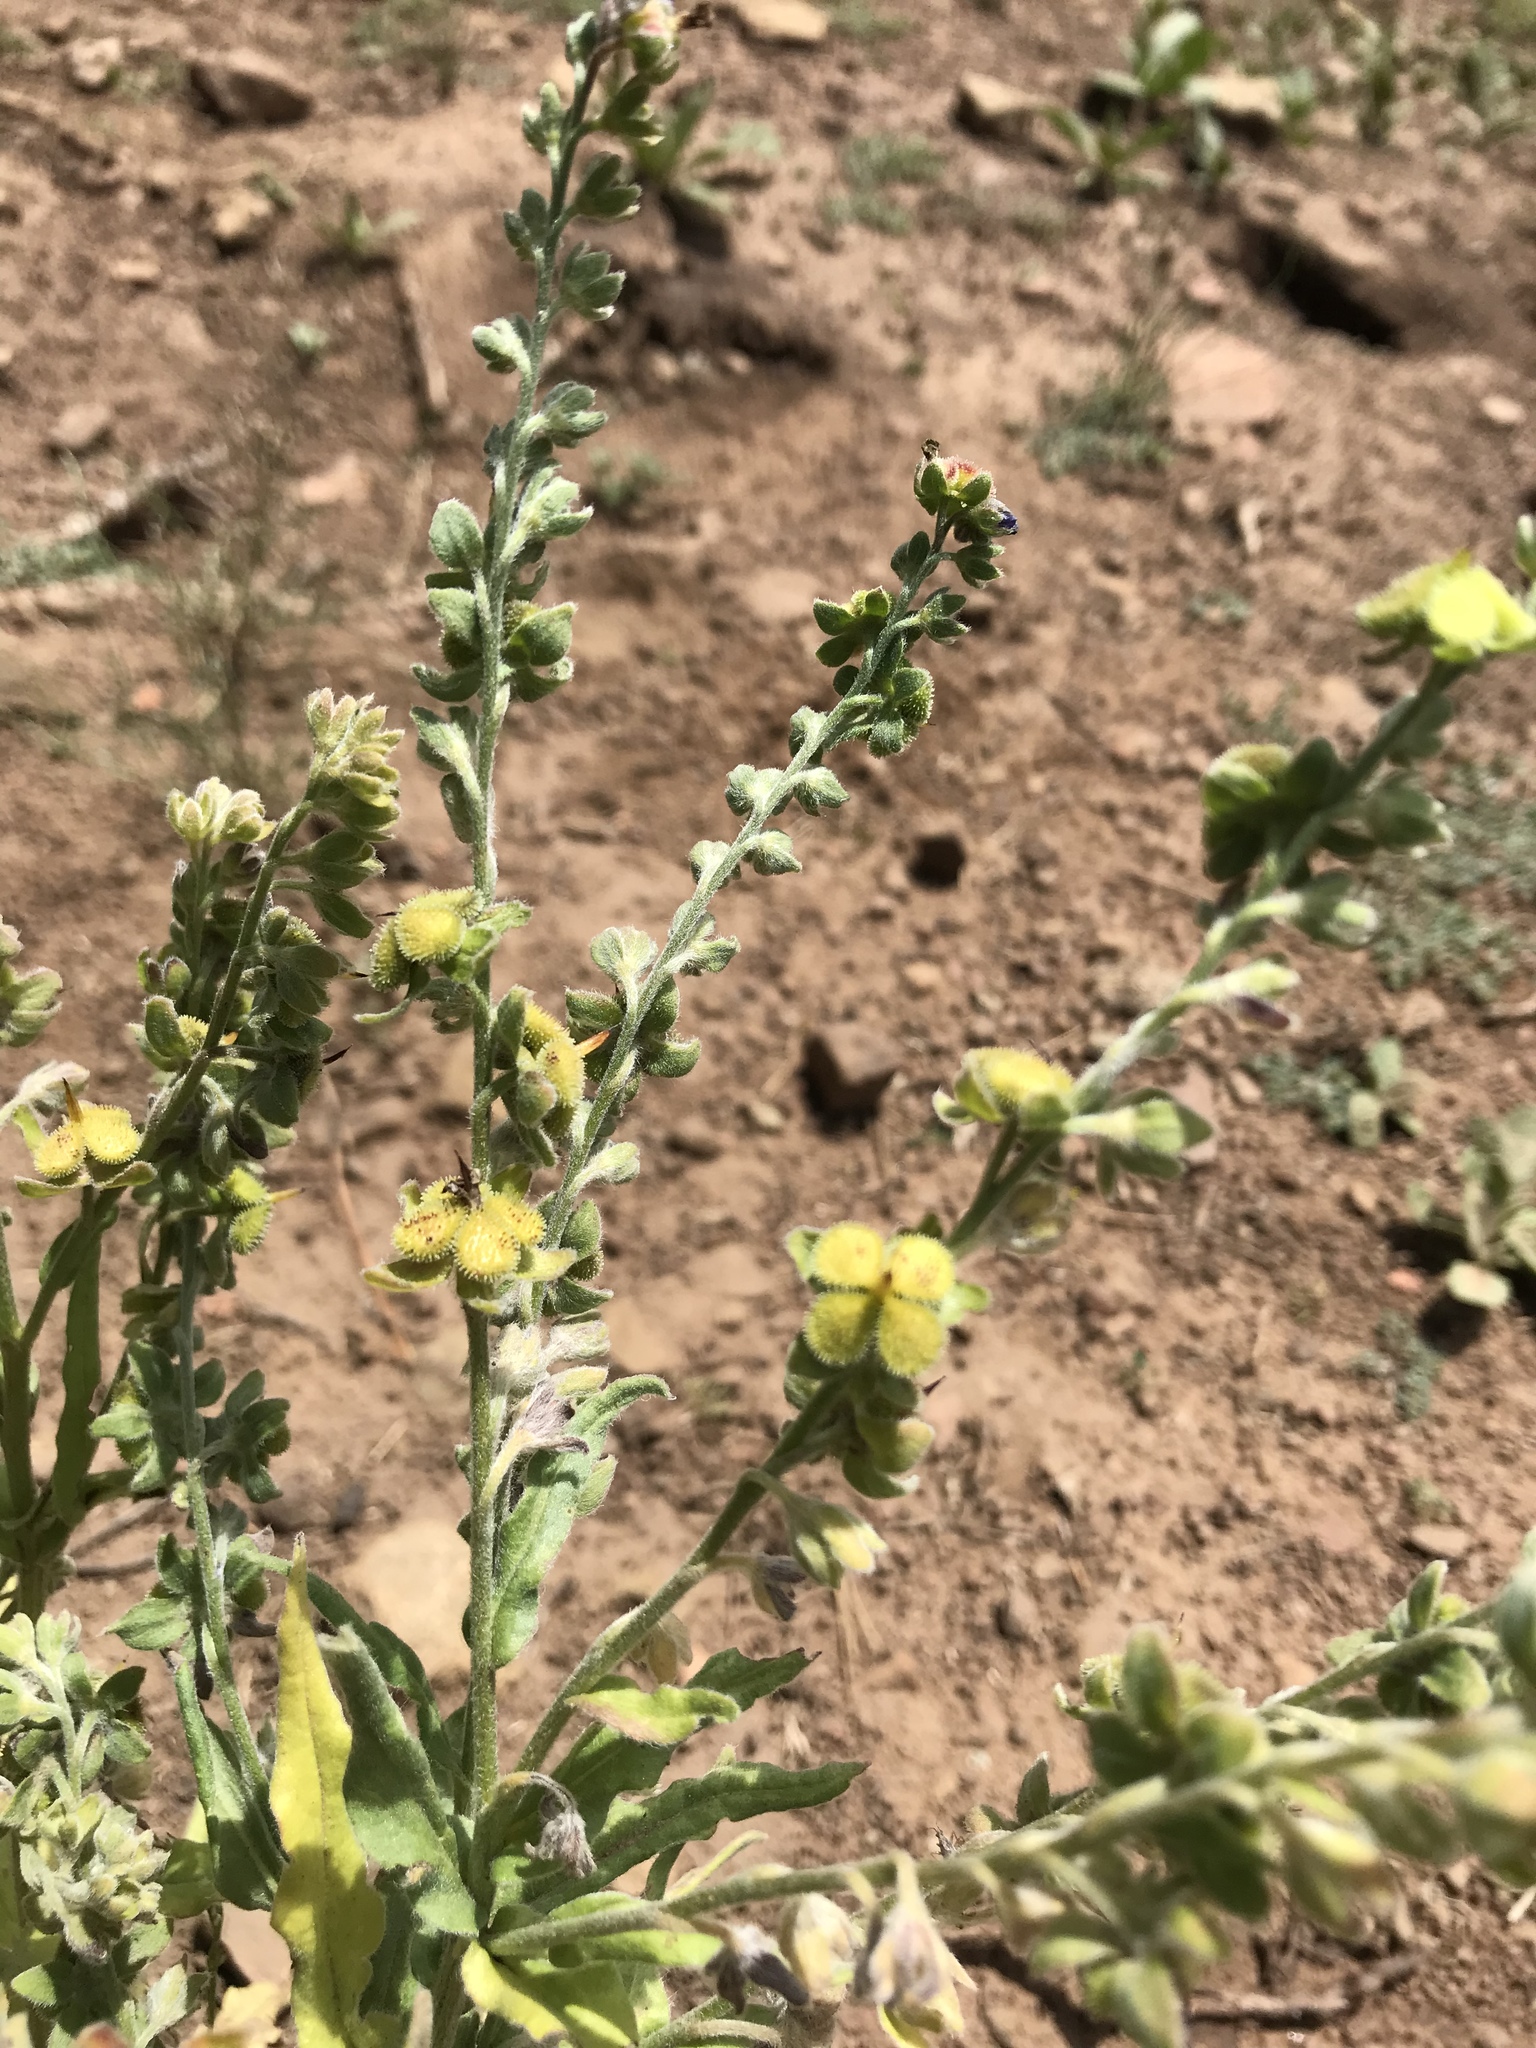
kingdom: Plantae
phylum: Tracheophyta
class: Magnoliopsida
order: Boraginales
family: Boraginaceae
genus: Cynoglossum
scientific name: Cynoglossum officinale
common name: Hound's-tongue
